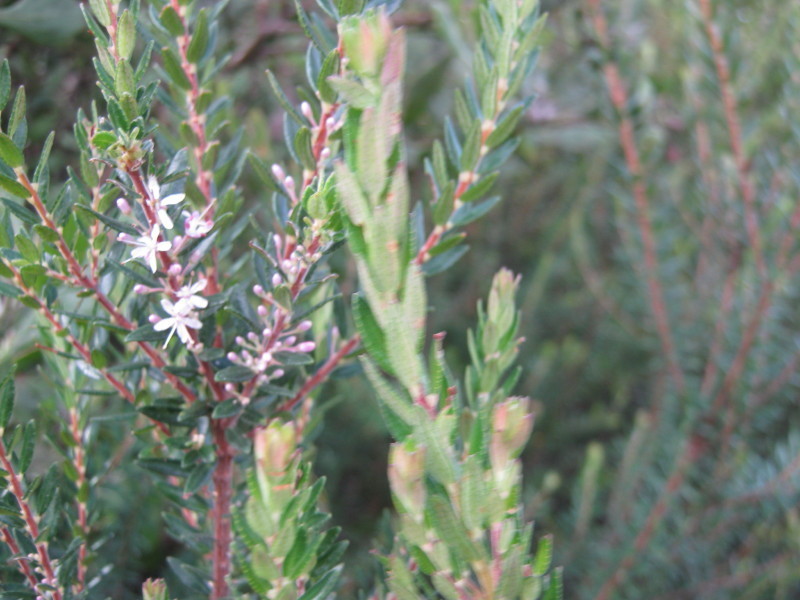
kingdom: Plantae
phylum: Tracheophyta
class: Magnoliopsida
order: Sapindales
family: Rutaceae
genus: Agathosma
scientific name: Agathosma ovata
